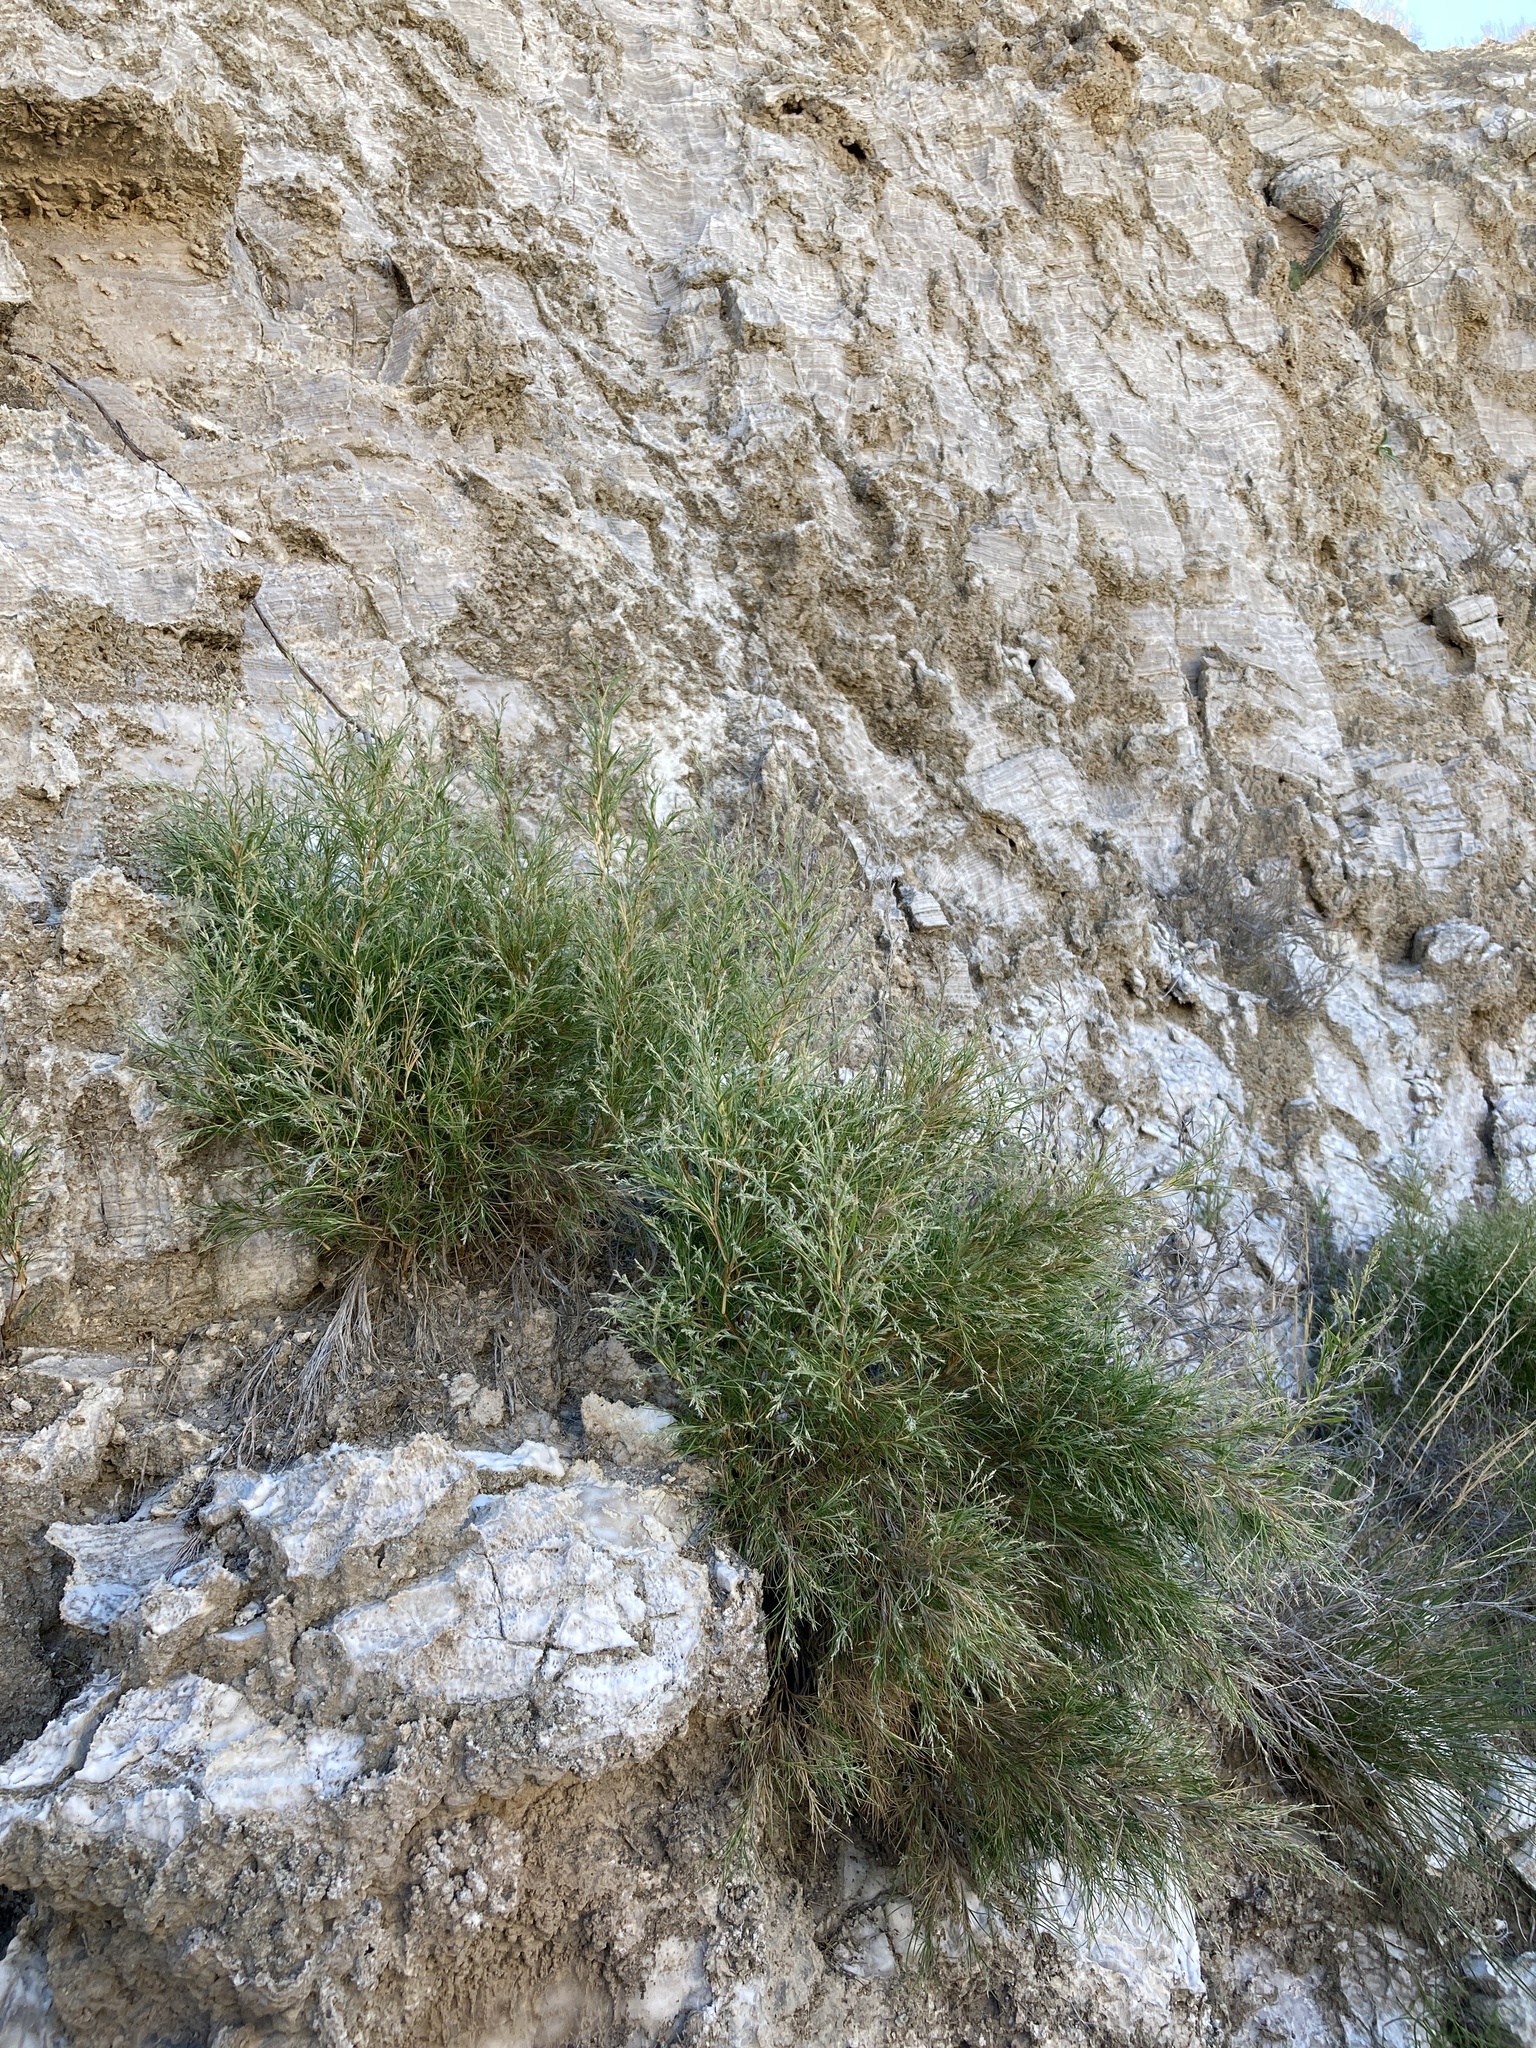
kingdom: Plantae
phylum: Tracheophyta
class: Liliopsida
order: Poales
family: Poaceae
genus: Muhlenbergia
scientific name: Muhlenbergia villiflora
